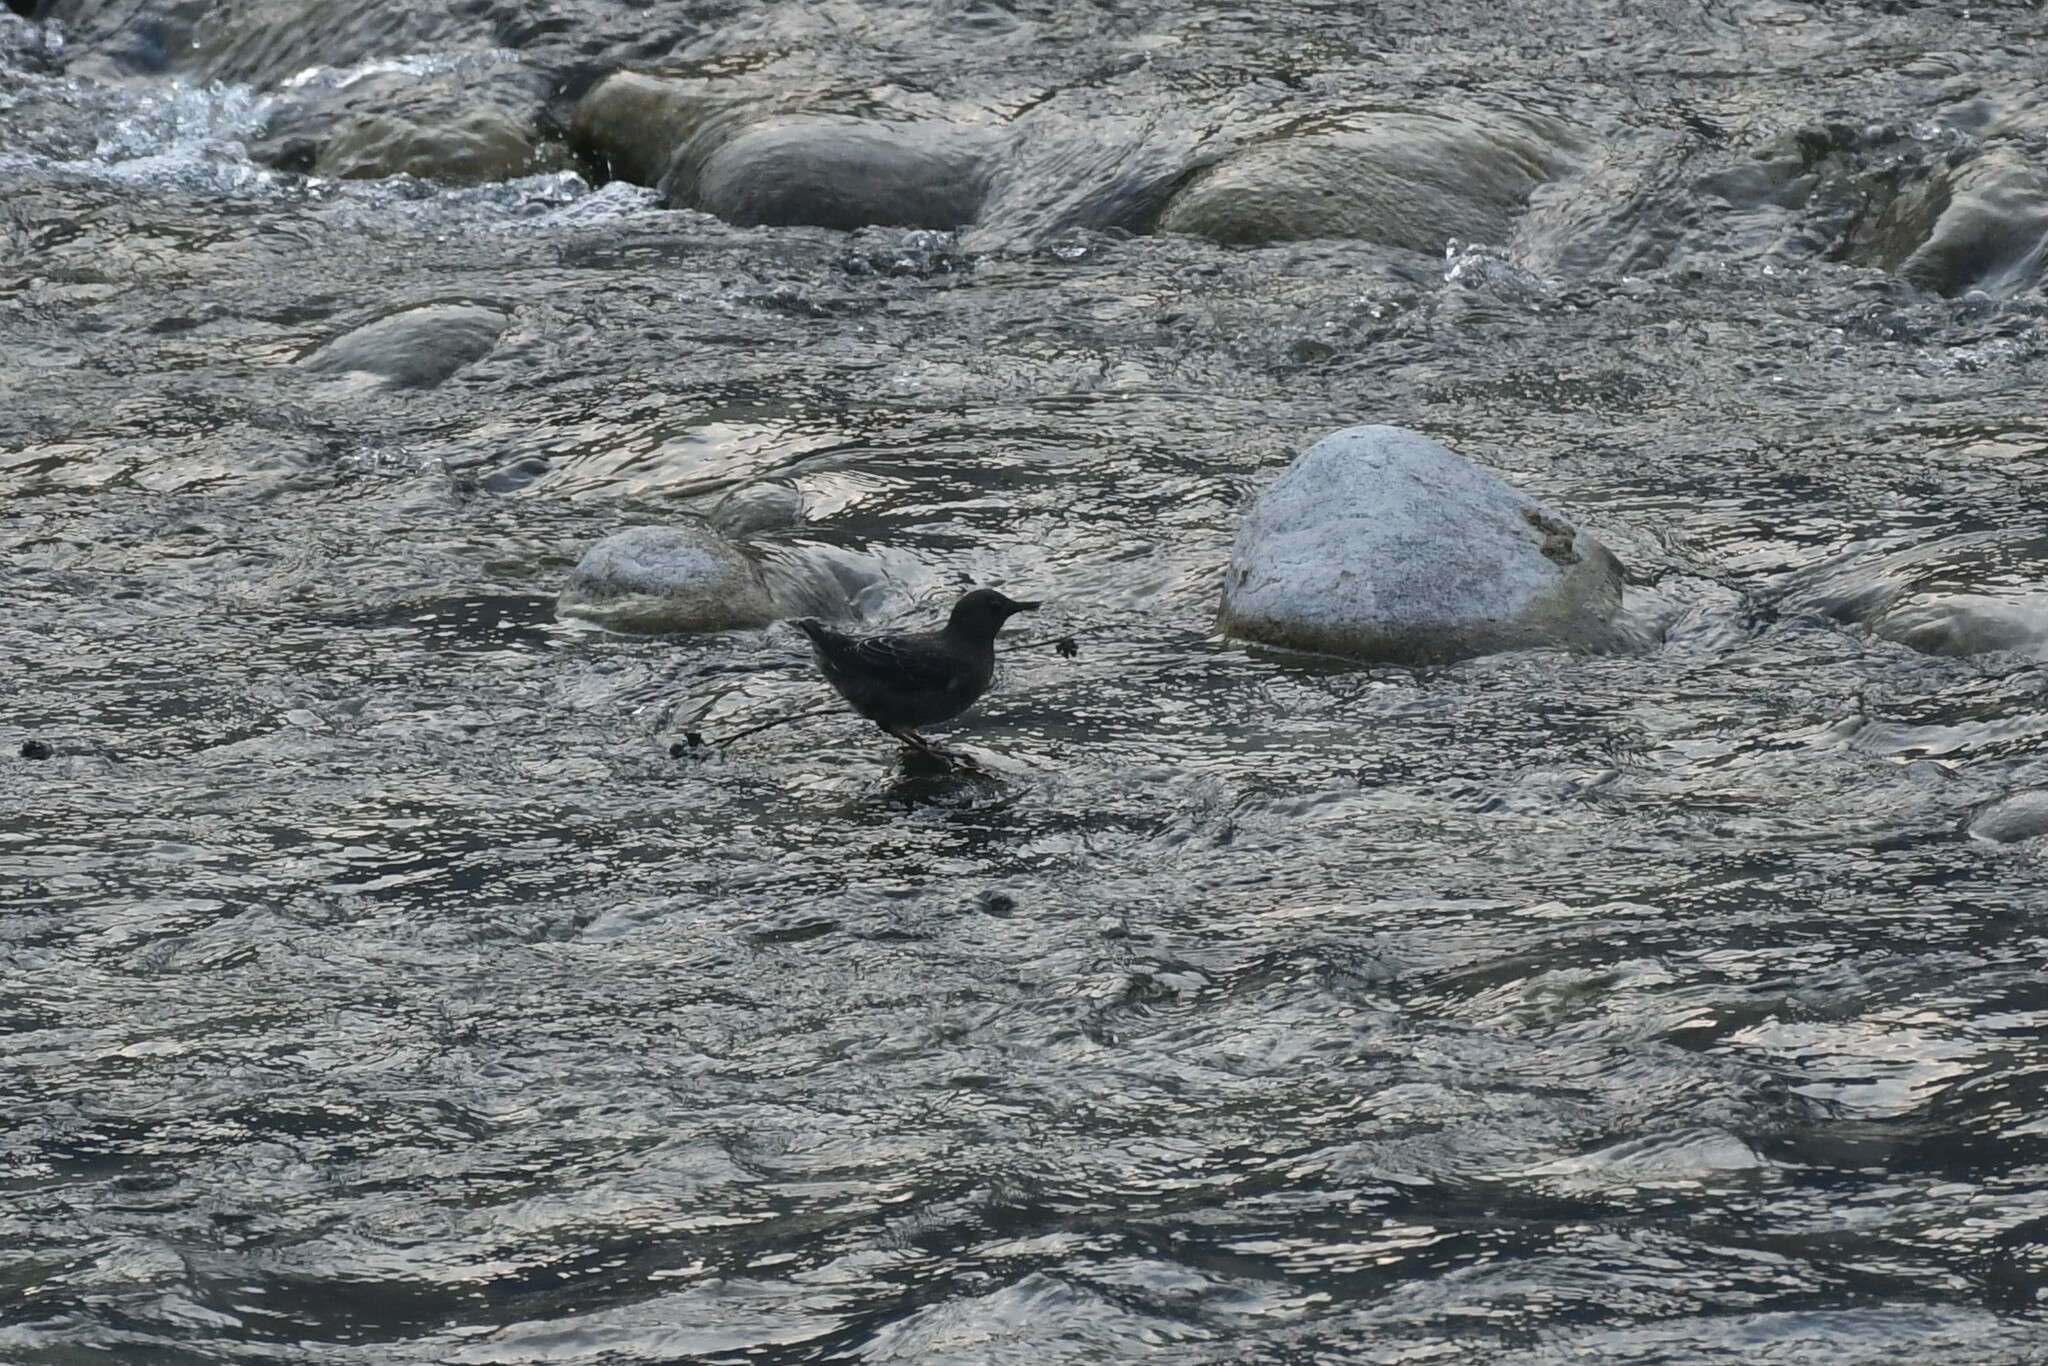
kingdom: Animalia
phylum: Chordata
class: Aves
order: Passeriformes
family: Cinclidae
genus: Cinclus
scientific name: Cinclus pallasii
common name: Brown dipper
